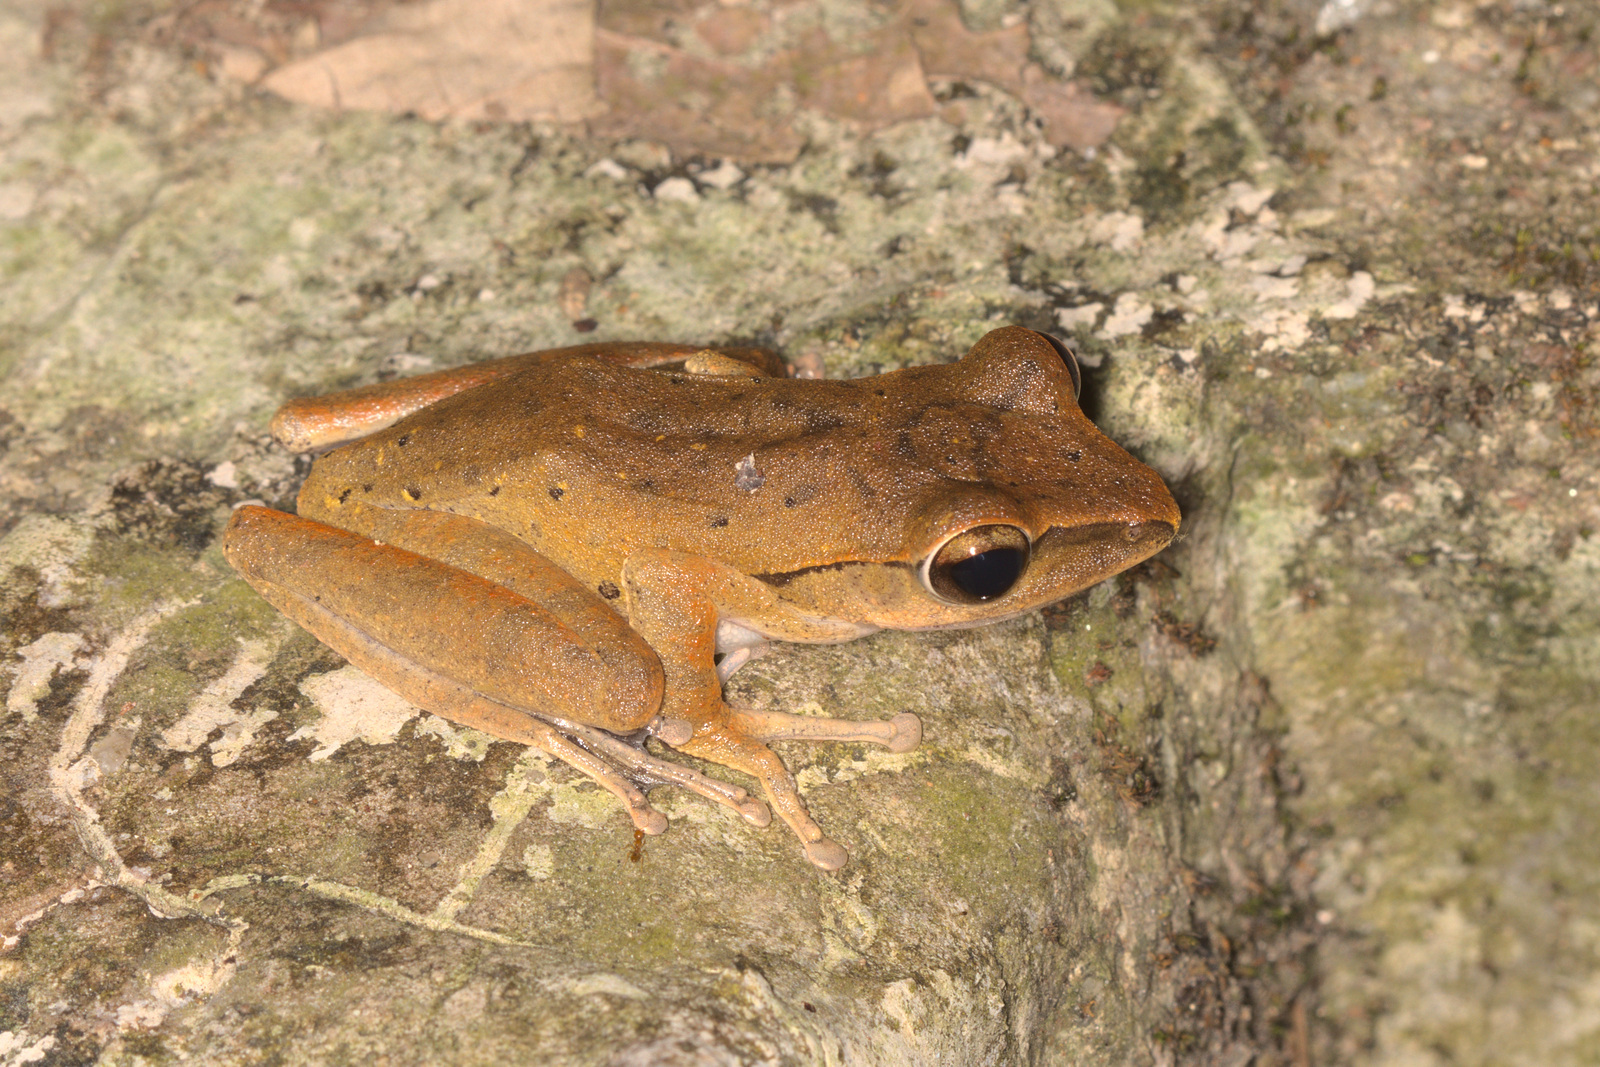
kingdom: Animalia
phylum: Chordata
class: Amphibia
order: Anura
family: Rhacophoridae
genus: Polypedates
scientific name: Polypedates leucomystax
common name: Common tree frog/four-lined tree frog
